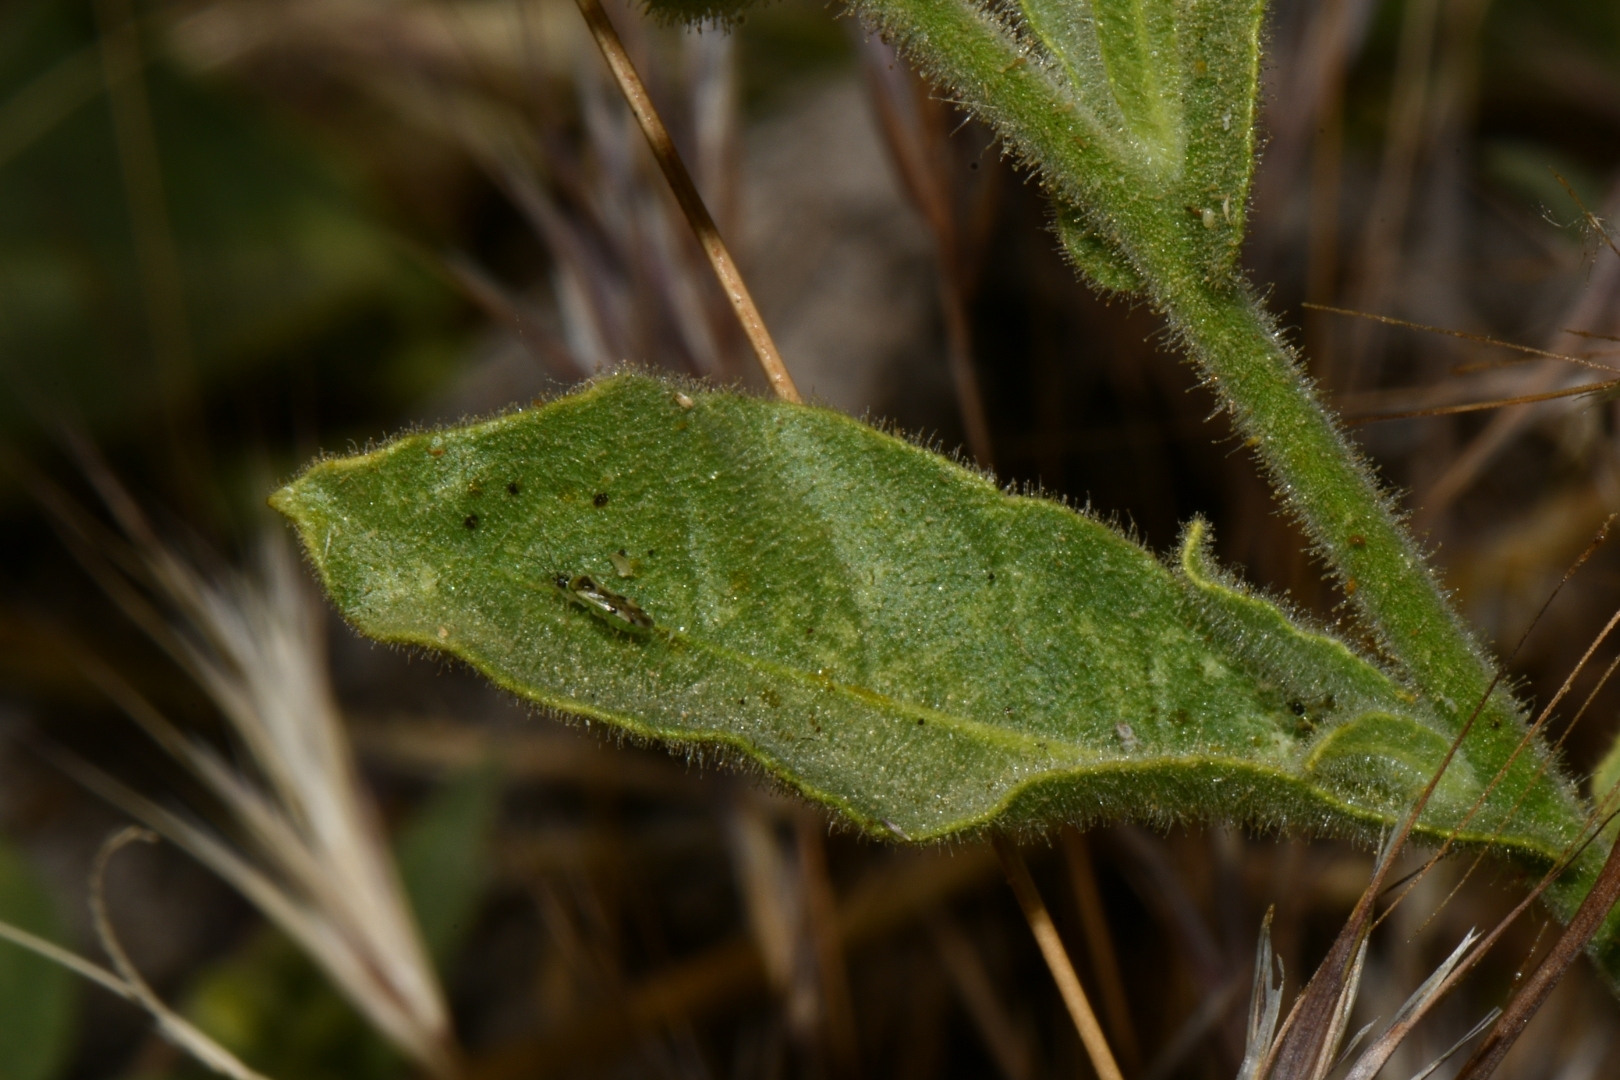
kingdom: Plantae
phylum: Tracheophyta
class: Magnoliopsida
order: Solanales
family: Solanaceae
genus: Nicotiana
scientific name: Nicotiana obtusifolia
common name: Desert tobacco
